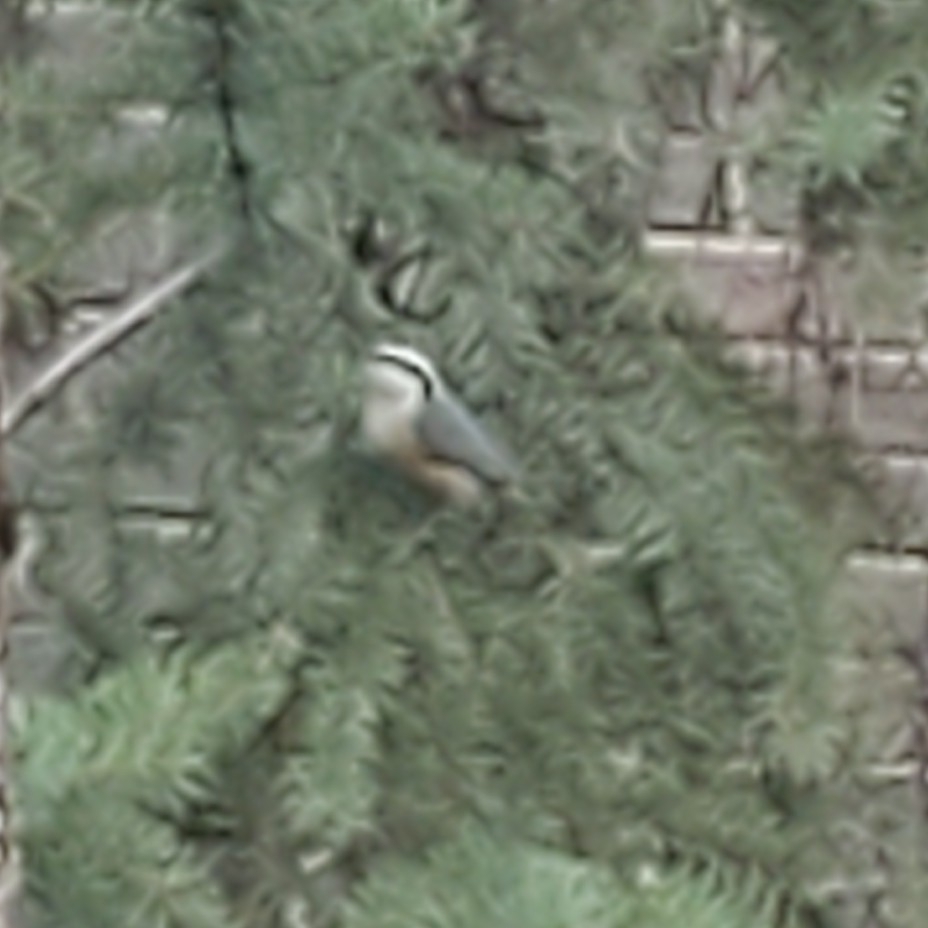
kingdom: Animalia
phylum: Chordata
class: Aves
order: Passeriformes
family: Sittidae
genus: Sitta
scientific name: Sitta canadensis
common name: Red-breasted nuthatch
